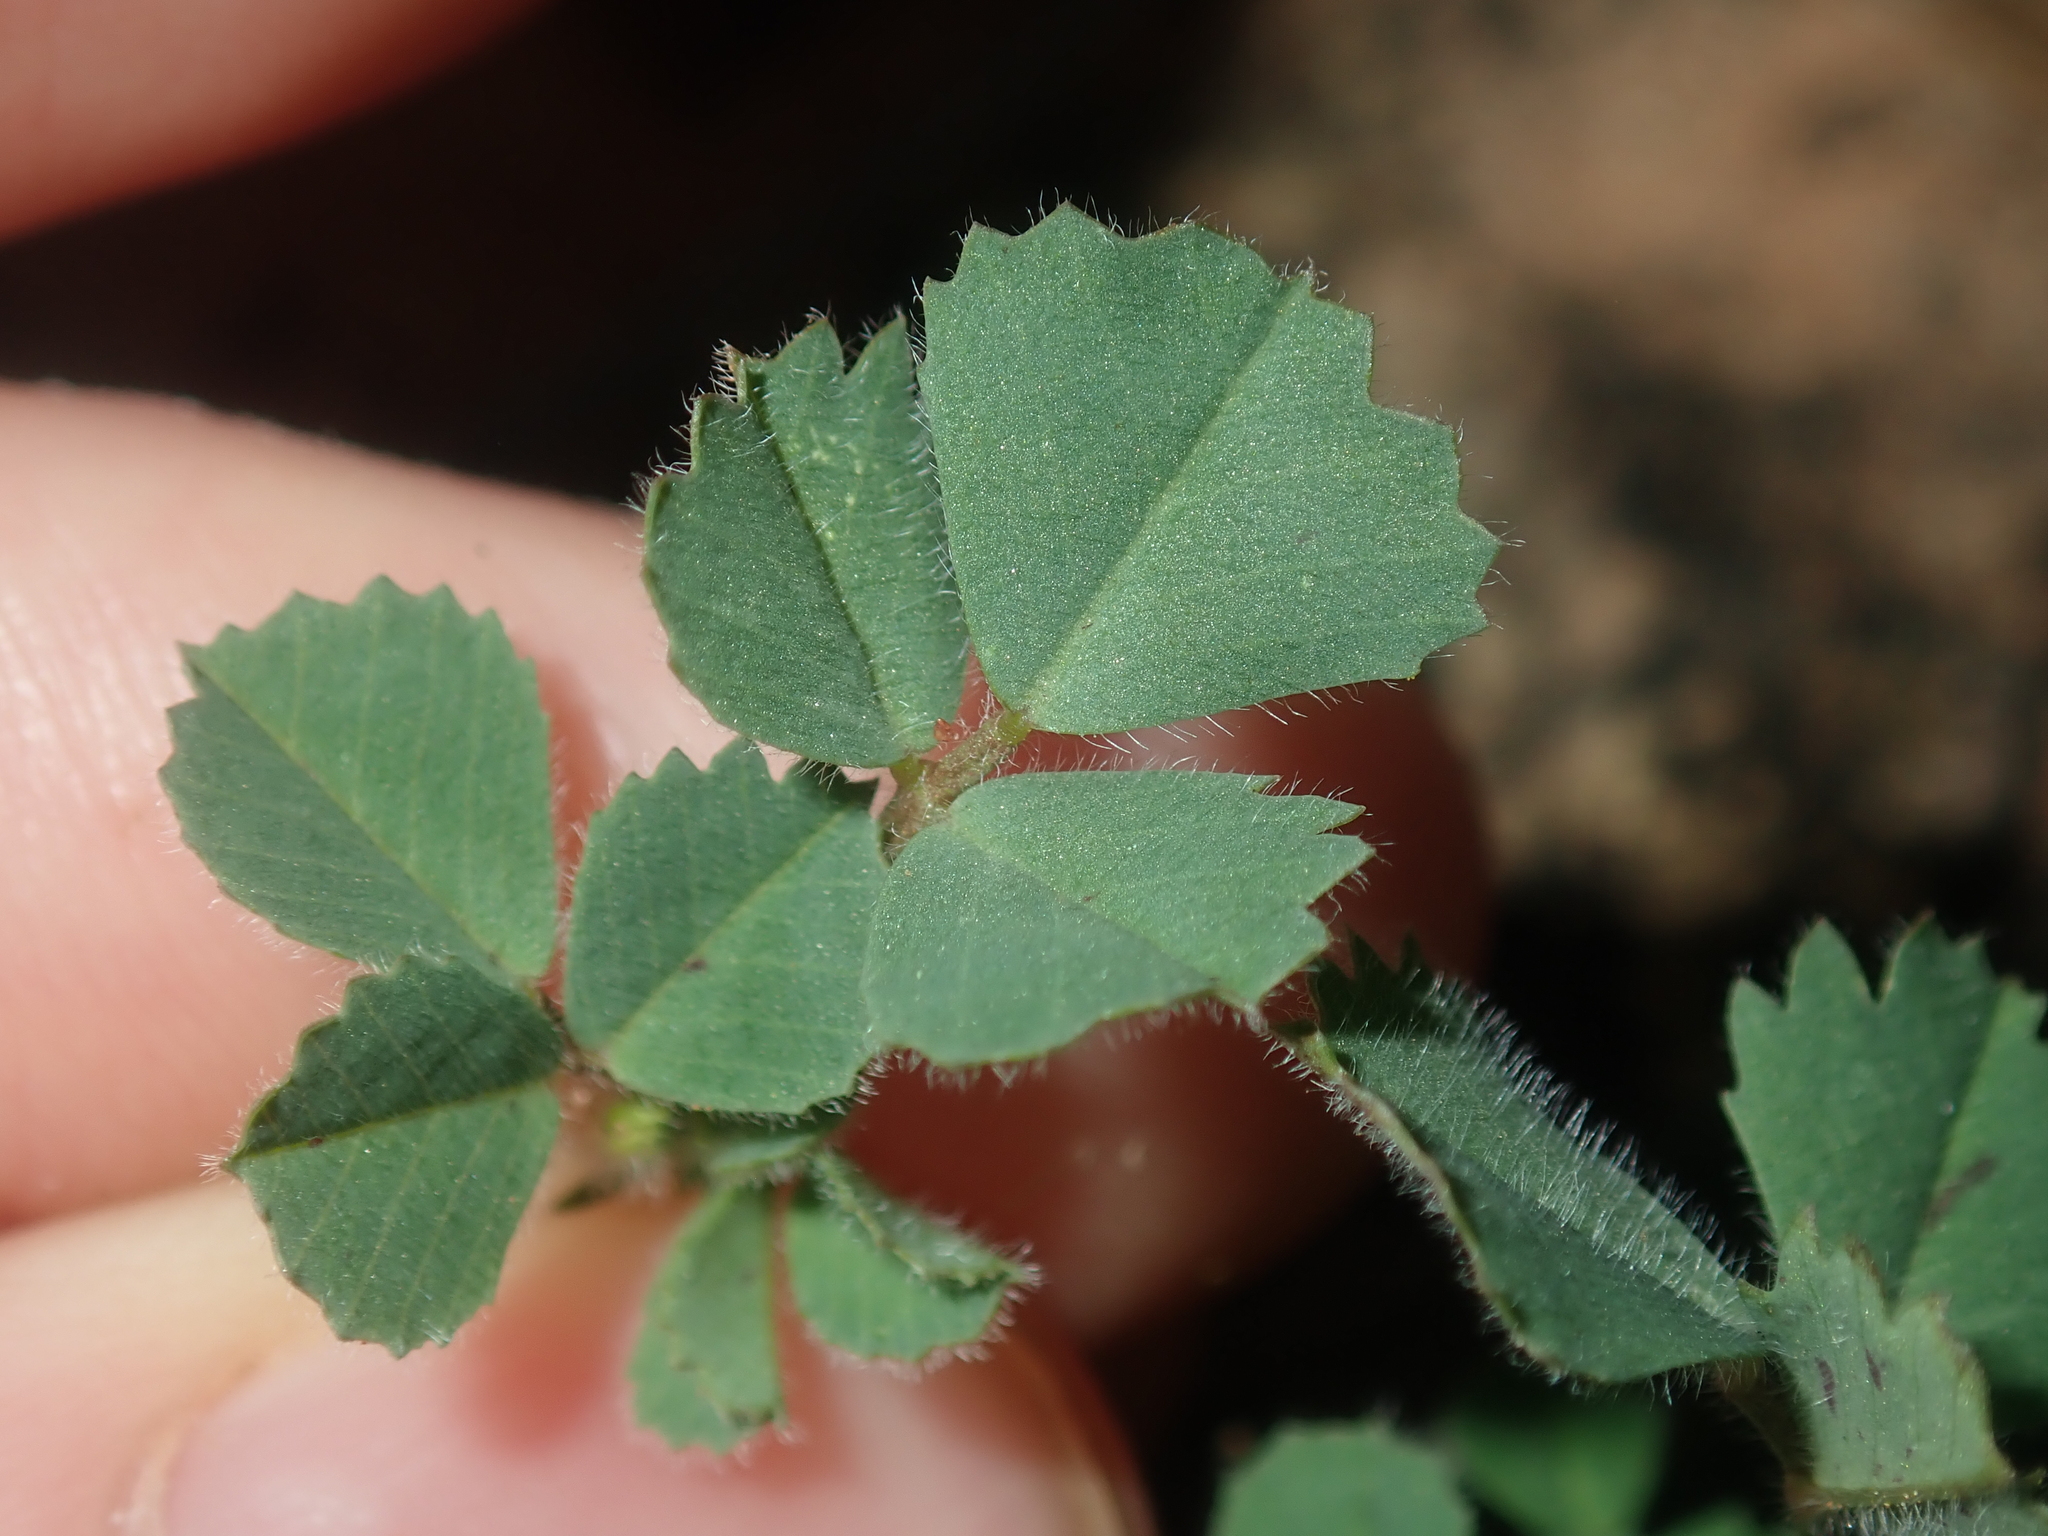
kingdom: Plantae
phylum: Tracheophyta
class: Magnoliopsida
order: Fabales
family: Fabaceae
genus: Medicago
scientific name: Medicago truncatula
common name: Strong-spined medick
